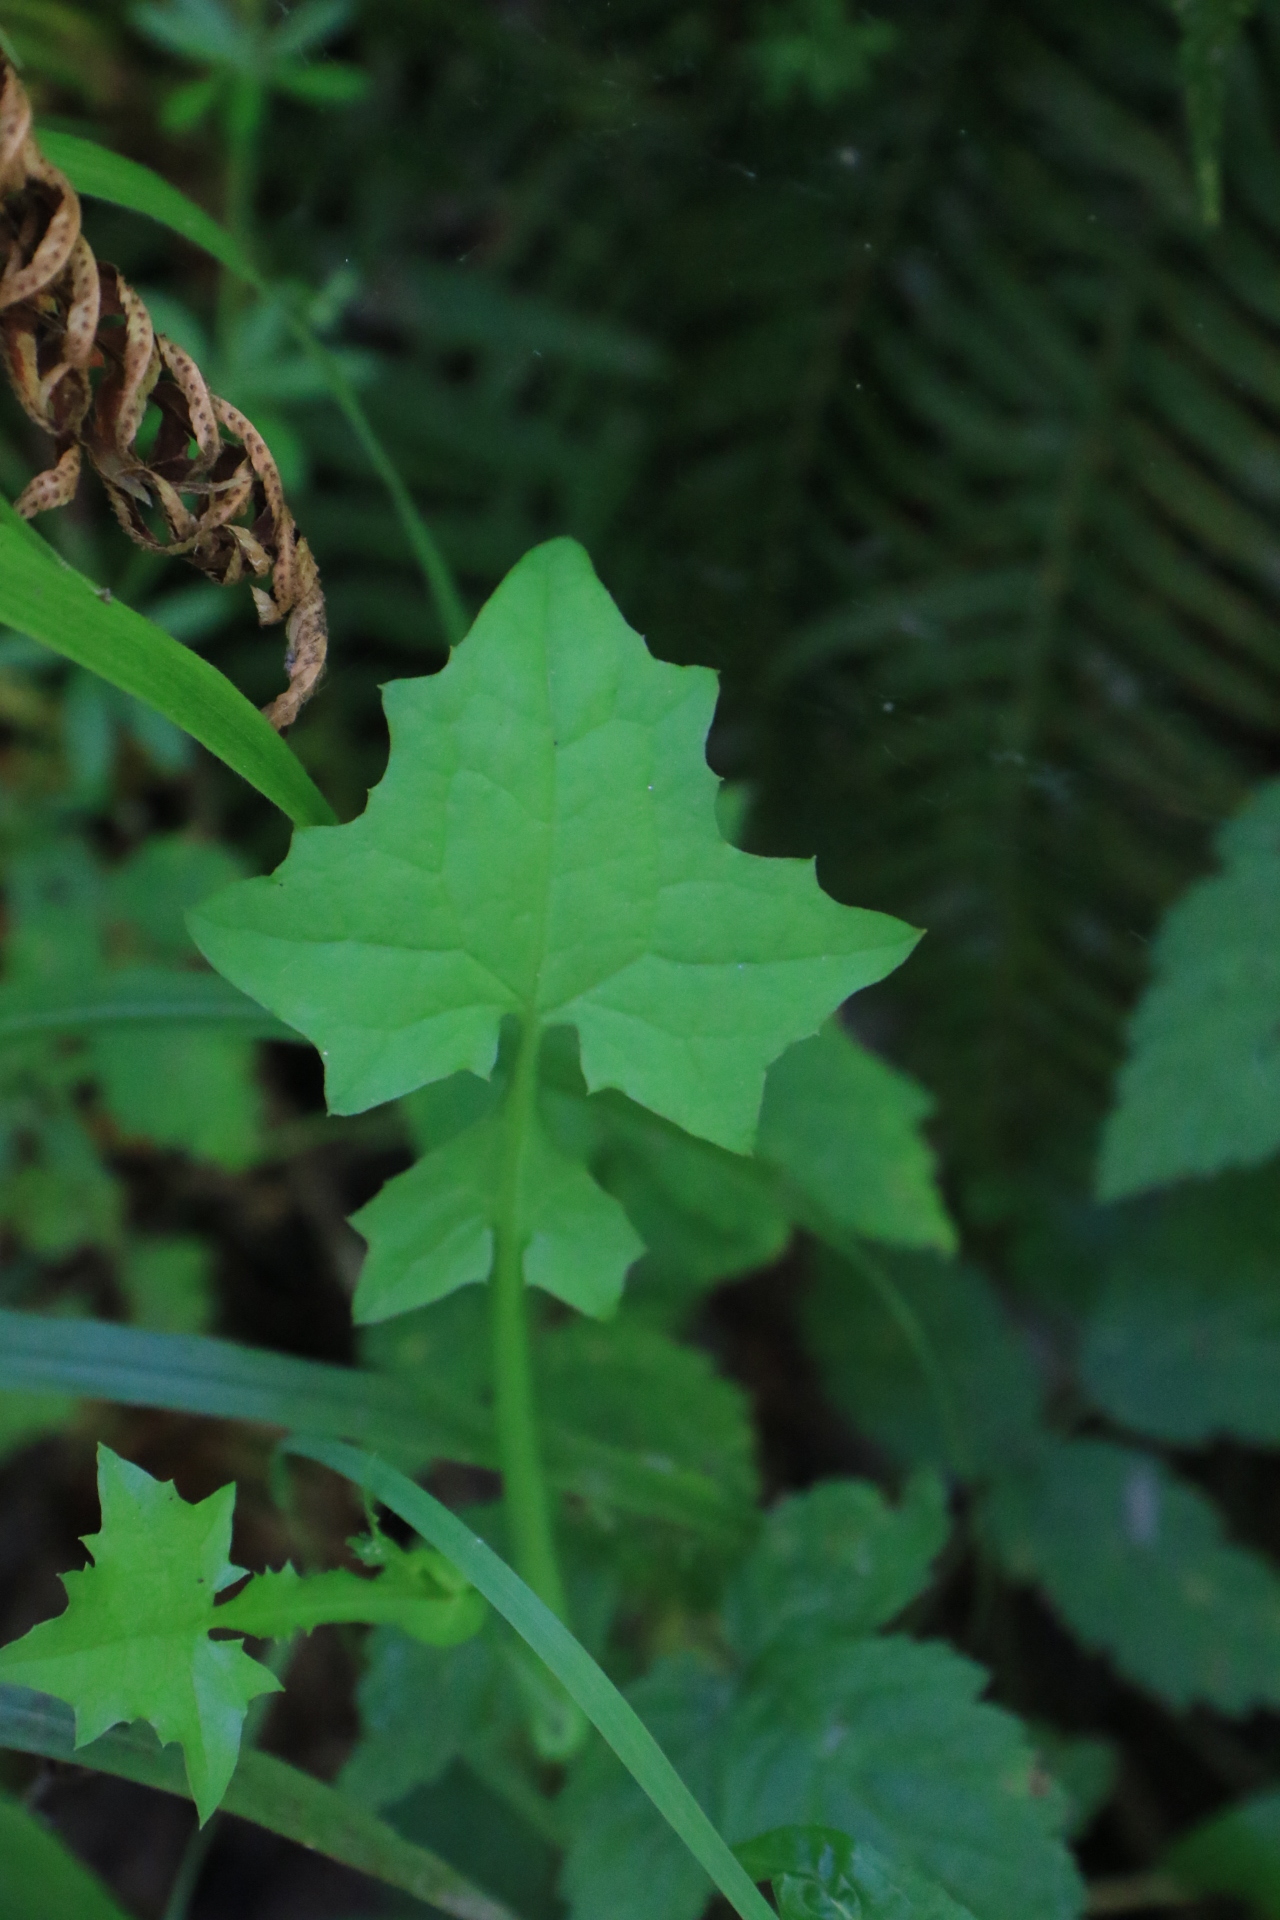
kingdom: Plantae
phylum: Tracheophyta
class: Magnoliopsida
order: Asterales
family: Asteraceae
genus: Mycelis
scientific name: Mycelis muralis
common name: Wall lettuce
